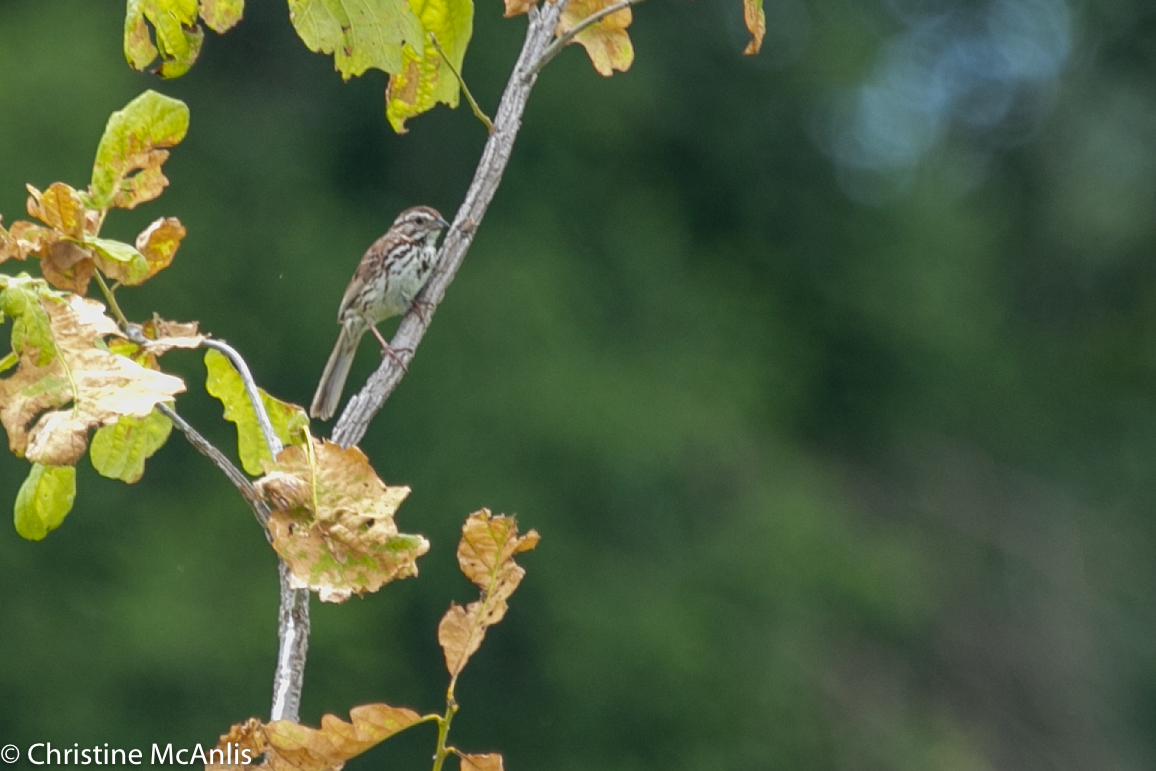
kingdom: Animalia
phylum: Chordata
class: Aves
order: Passeriformes
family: Passerellidae
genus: Melospiza
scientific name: Melospiza melodia
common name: Song sparrow
